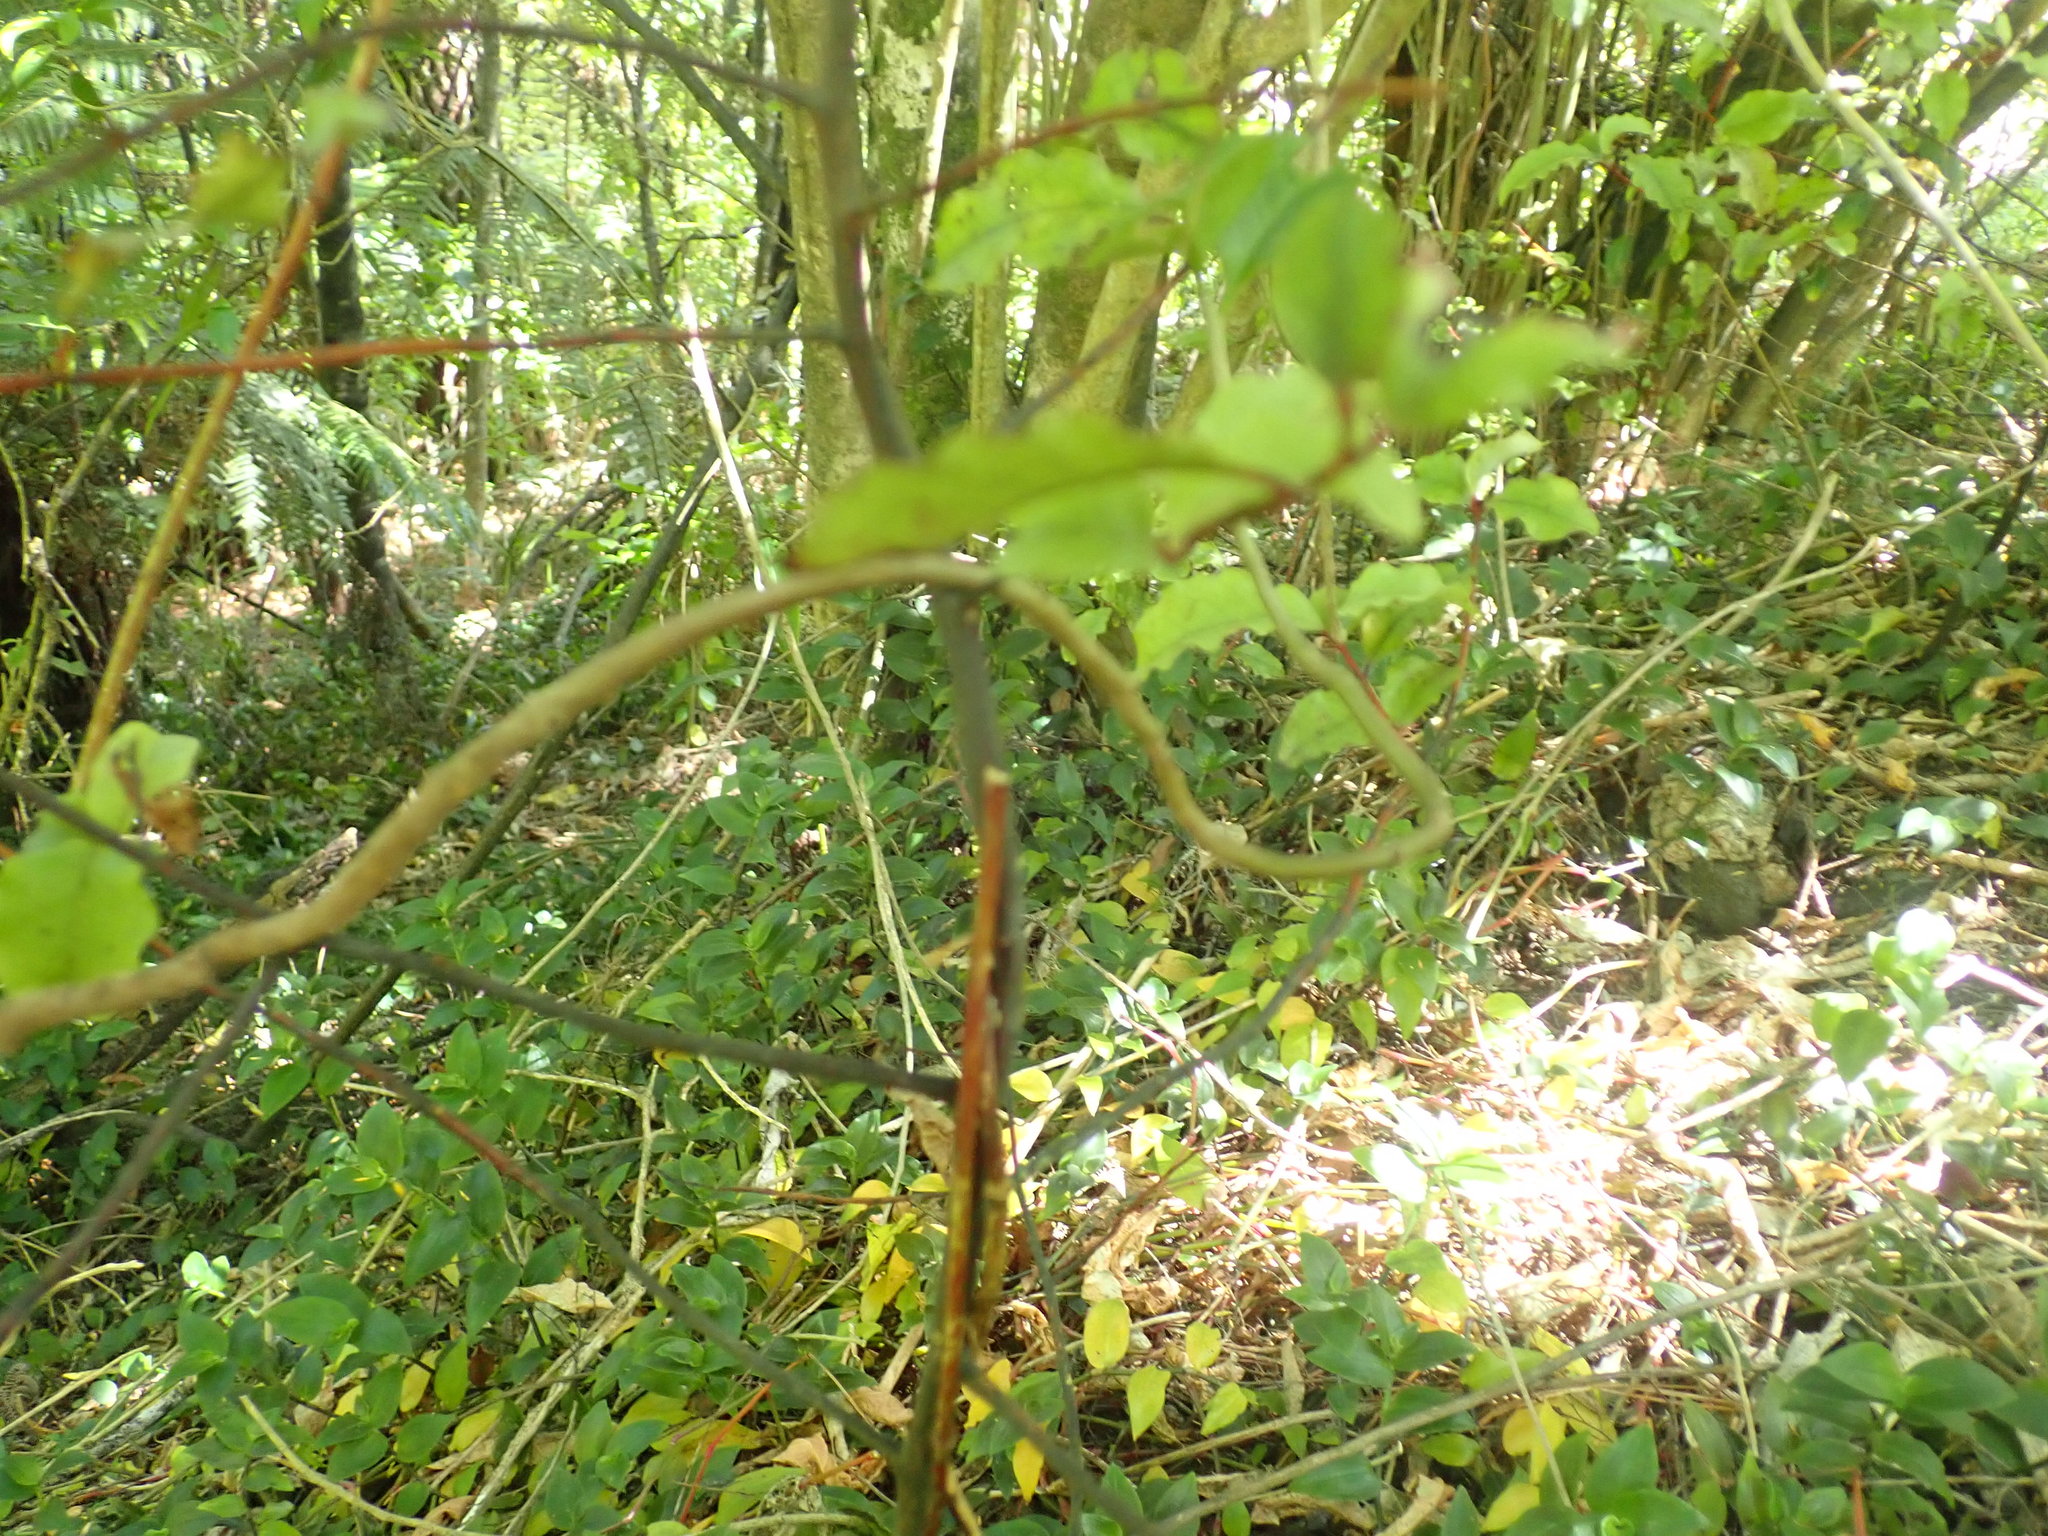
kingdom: Plantae
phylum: Tracheophyta
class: Magnoliopsida
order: Caryophyllales
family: Basellaceae
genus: Anredera
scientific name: Anredera cordifolia
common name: Heartleaf madeiravine
